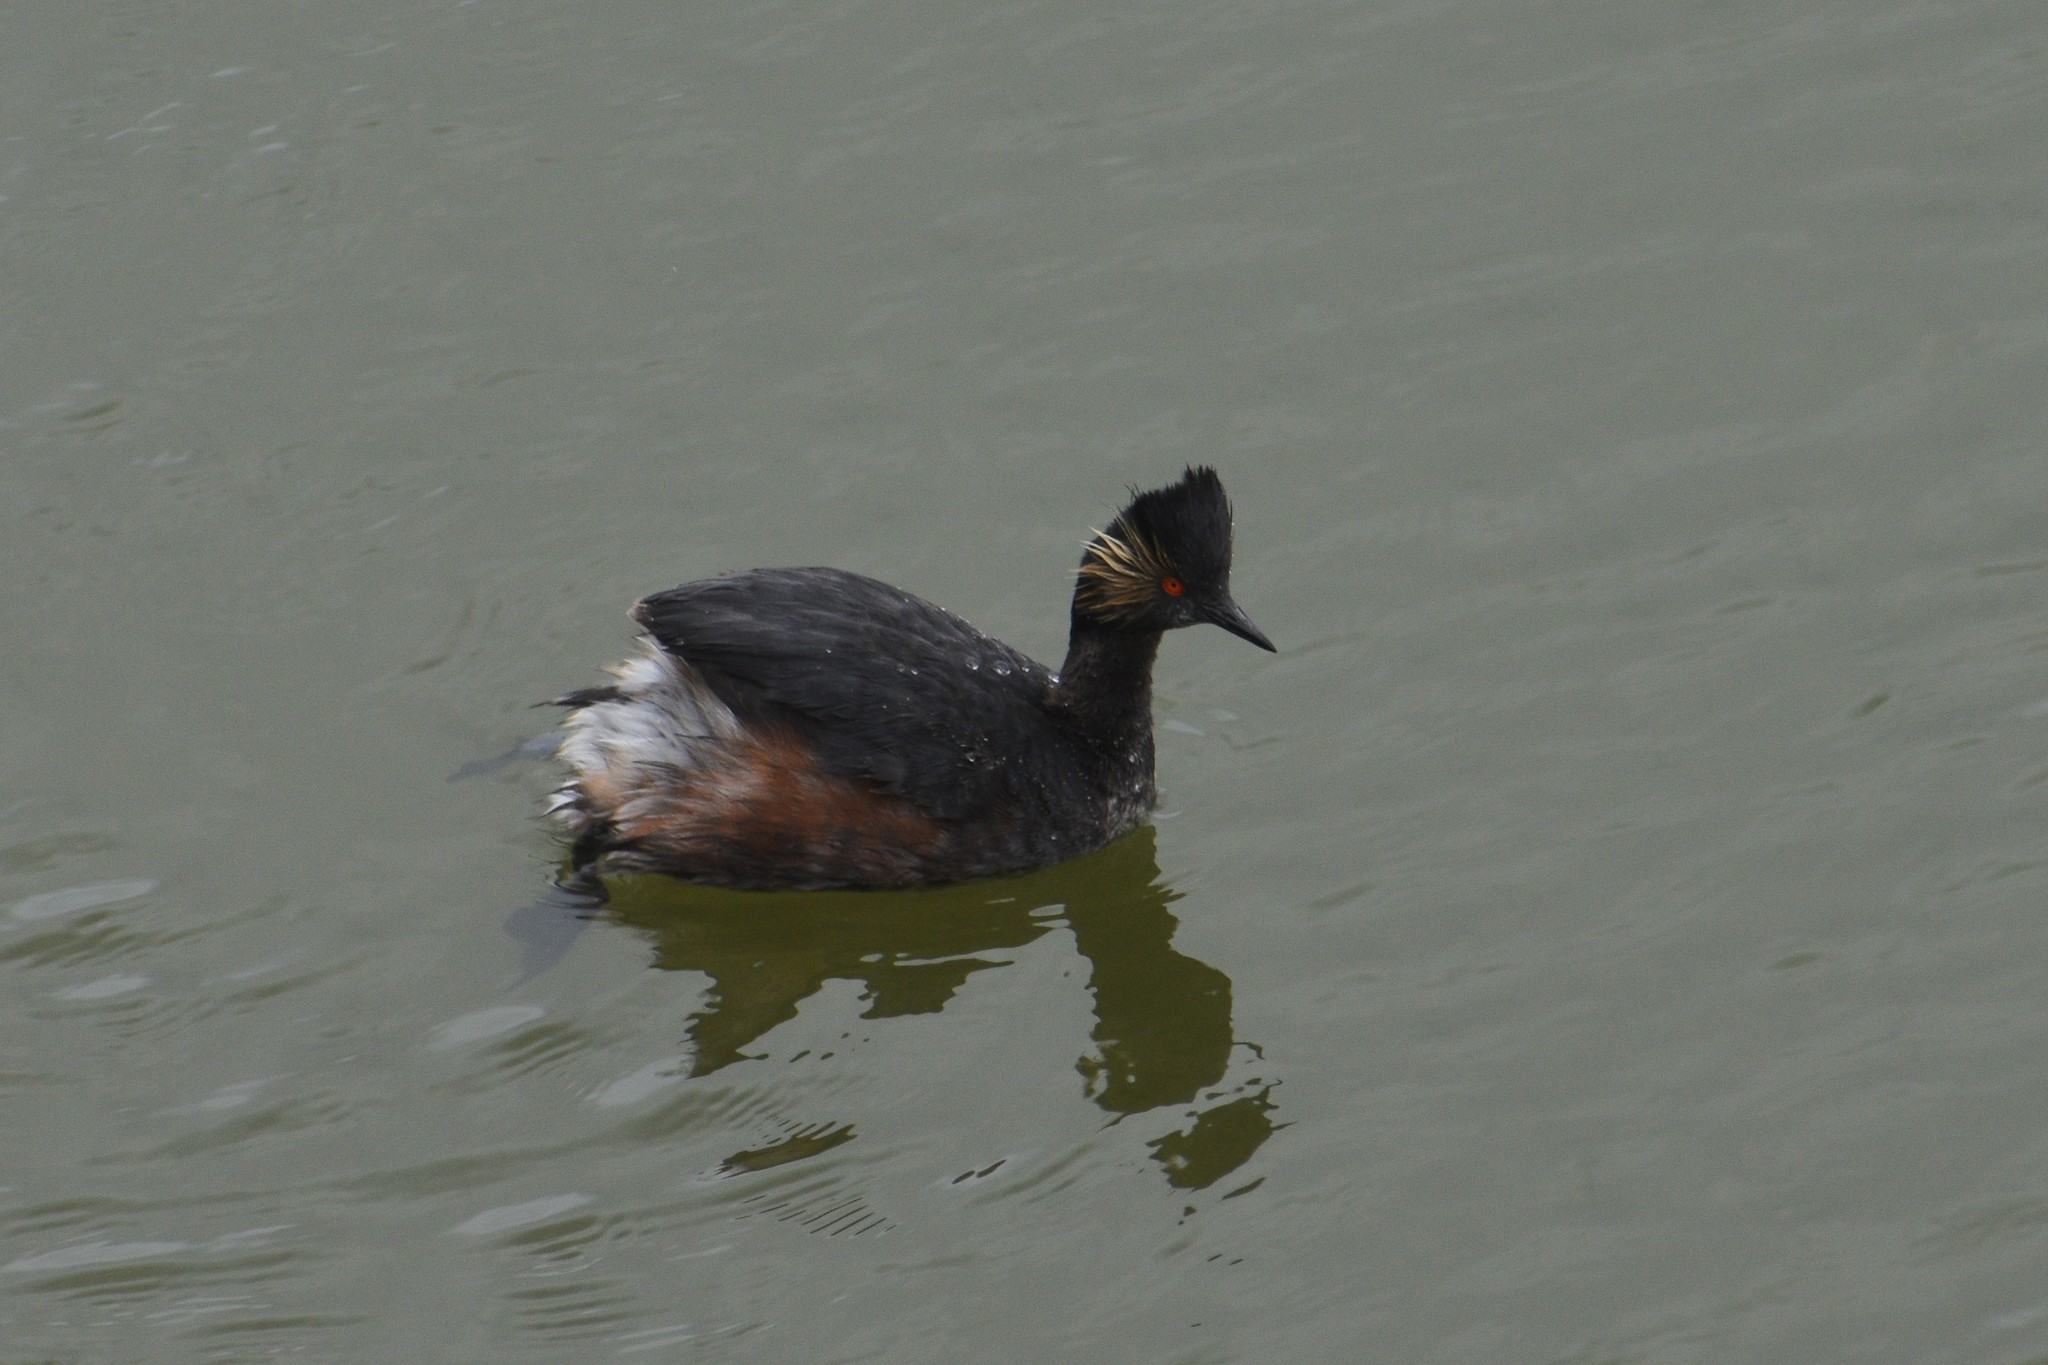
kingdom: Animalia
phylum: Chordata
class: Aves
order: Podicipediformes
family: Podicipedidae
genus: Podiceps
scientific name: Podiceps nigricollis
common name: Black-necked grebe
